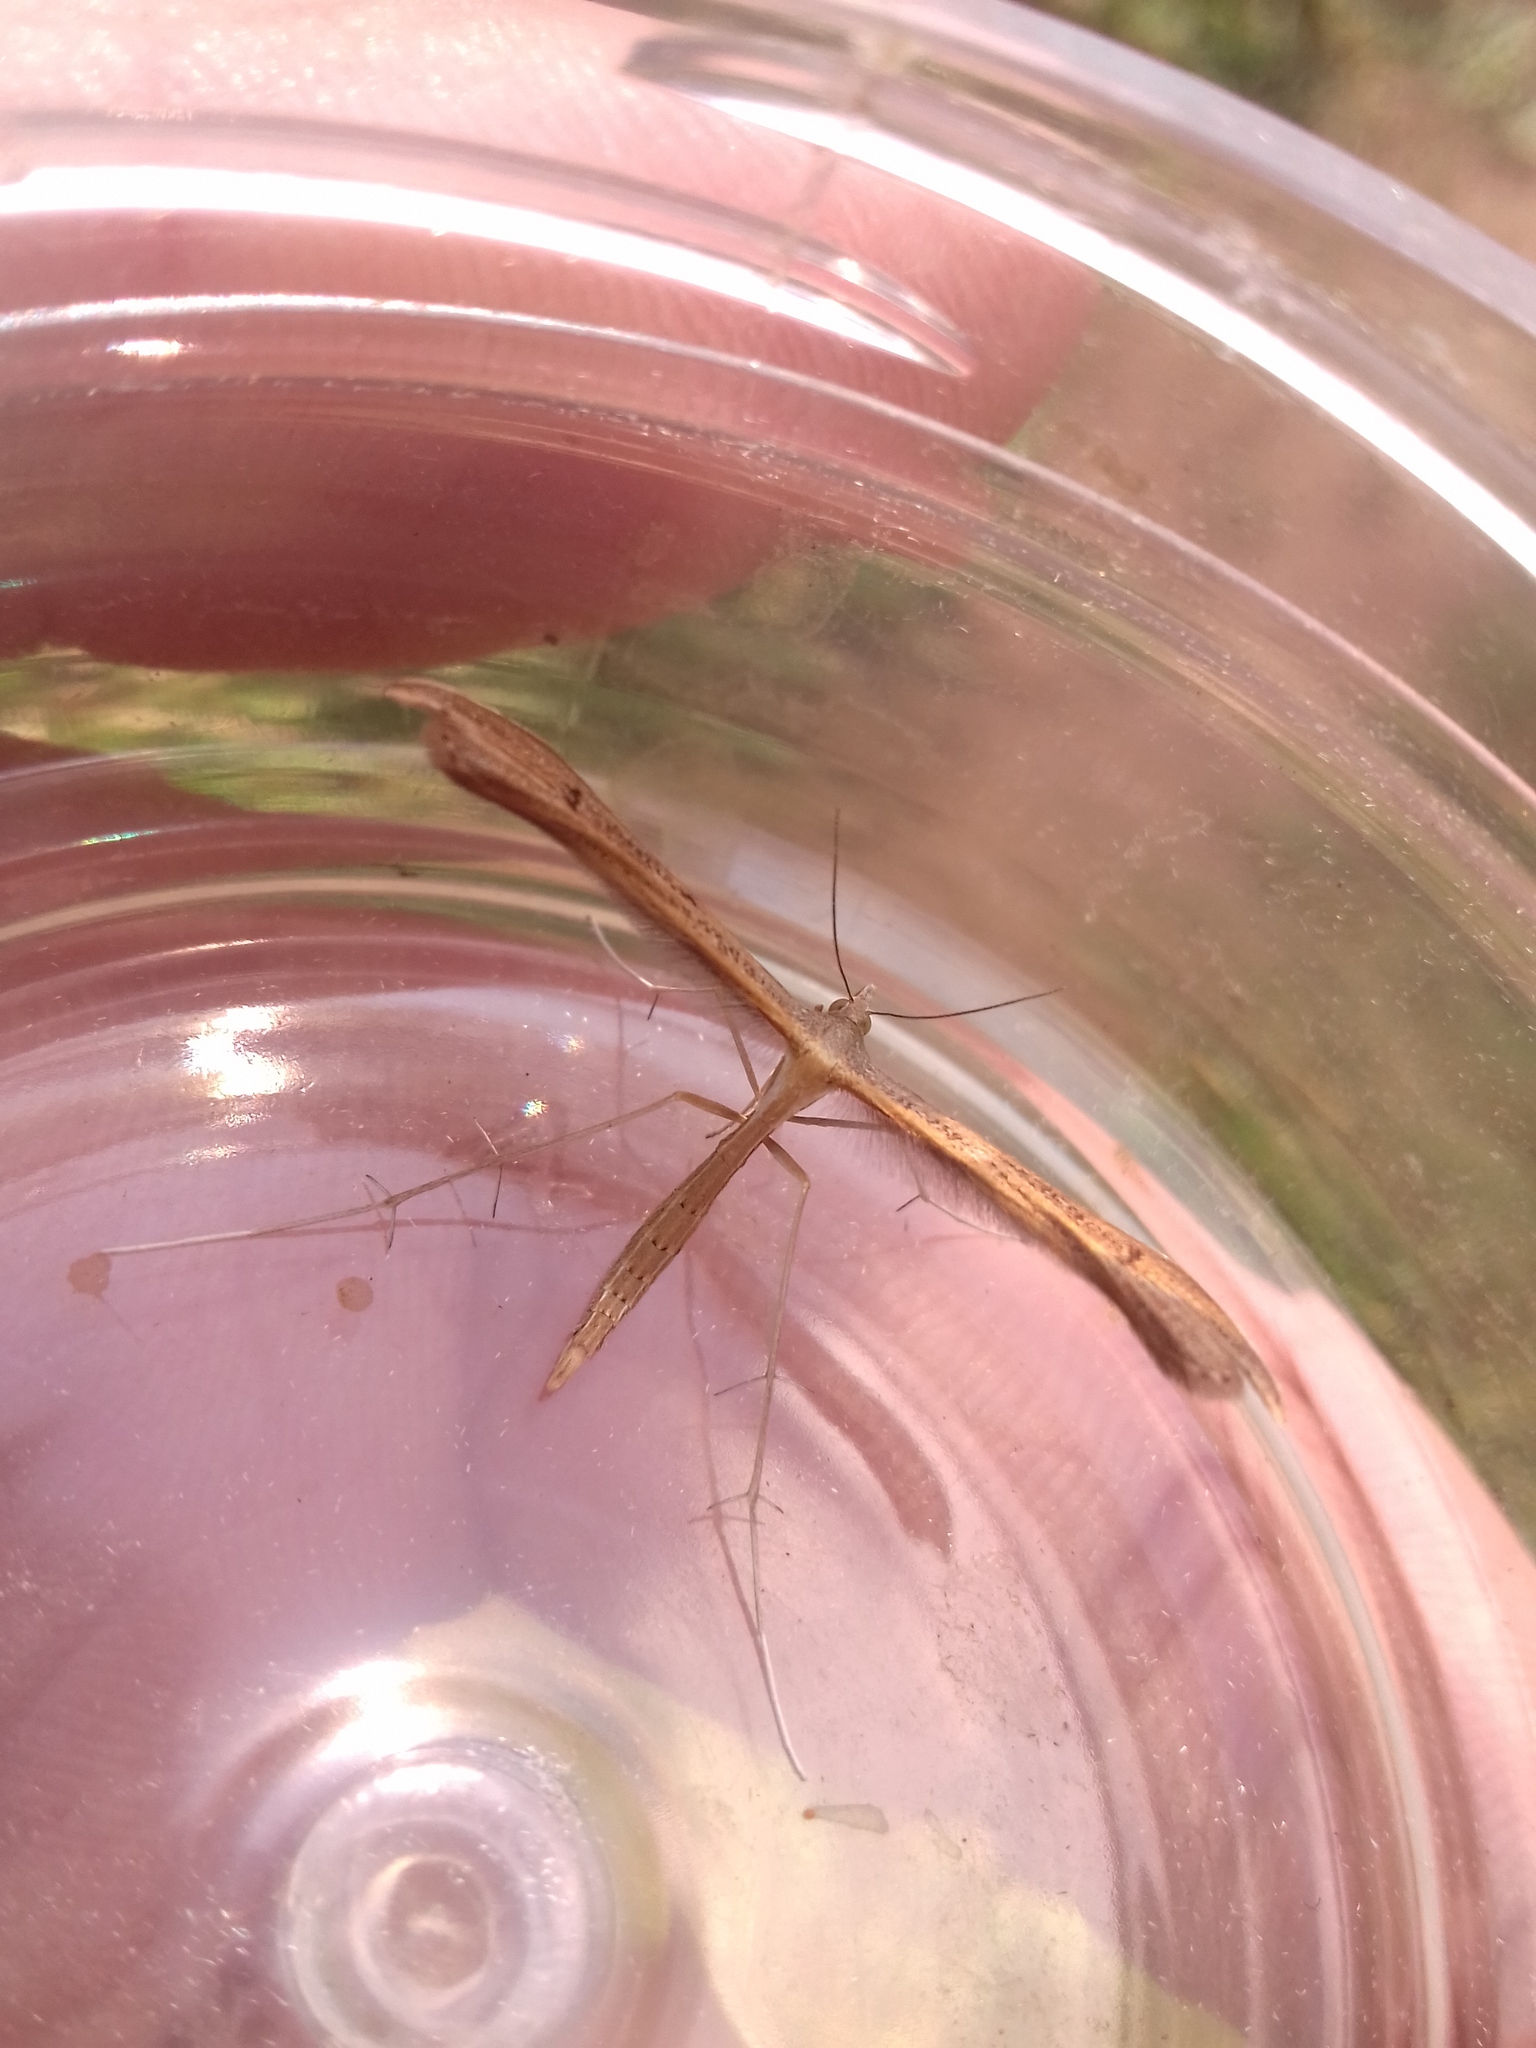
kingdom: Animalia
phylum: Arthropoda
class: Insecta
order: Lepidoptera
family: Pterophoridae
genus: Emmelina
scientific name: Emmelina monodactyla
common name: Common plume
